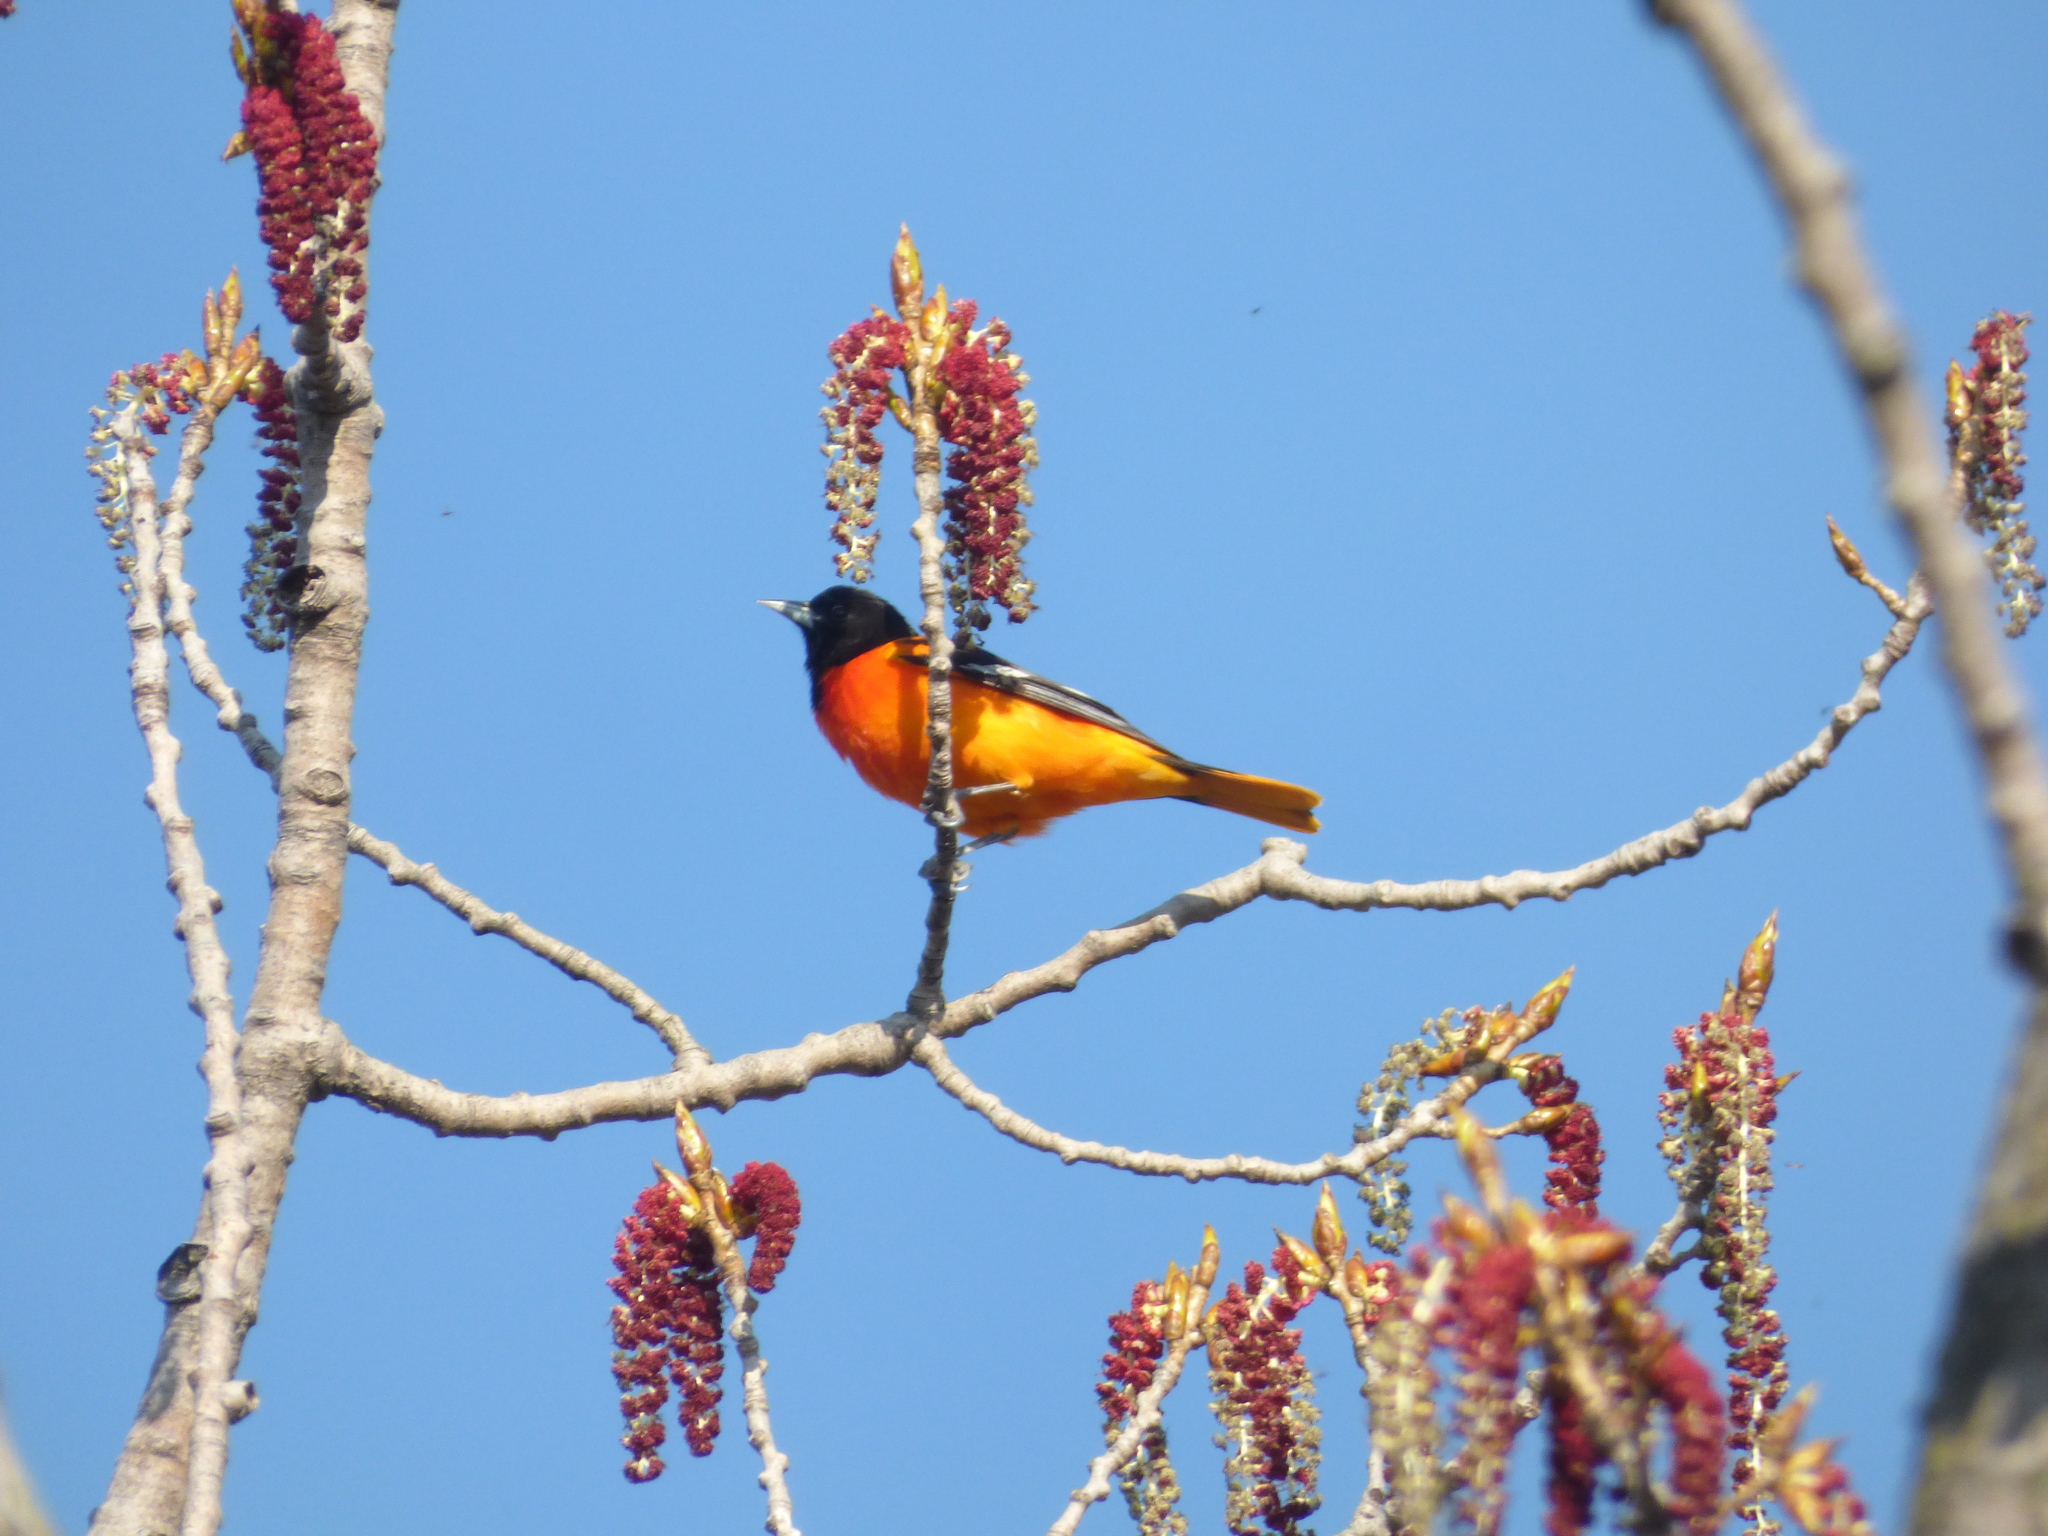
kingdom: Animalia
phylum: Chordata
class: Aves
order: Passeriformes
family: Icteridae
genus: Icterus
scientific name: Icterus galbula
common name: Baltimore oriole
